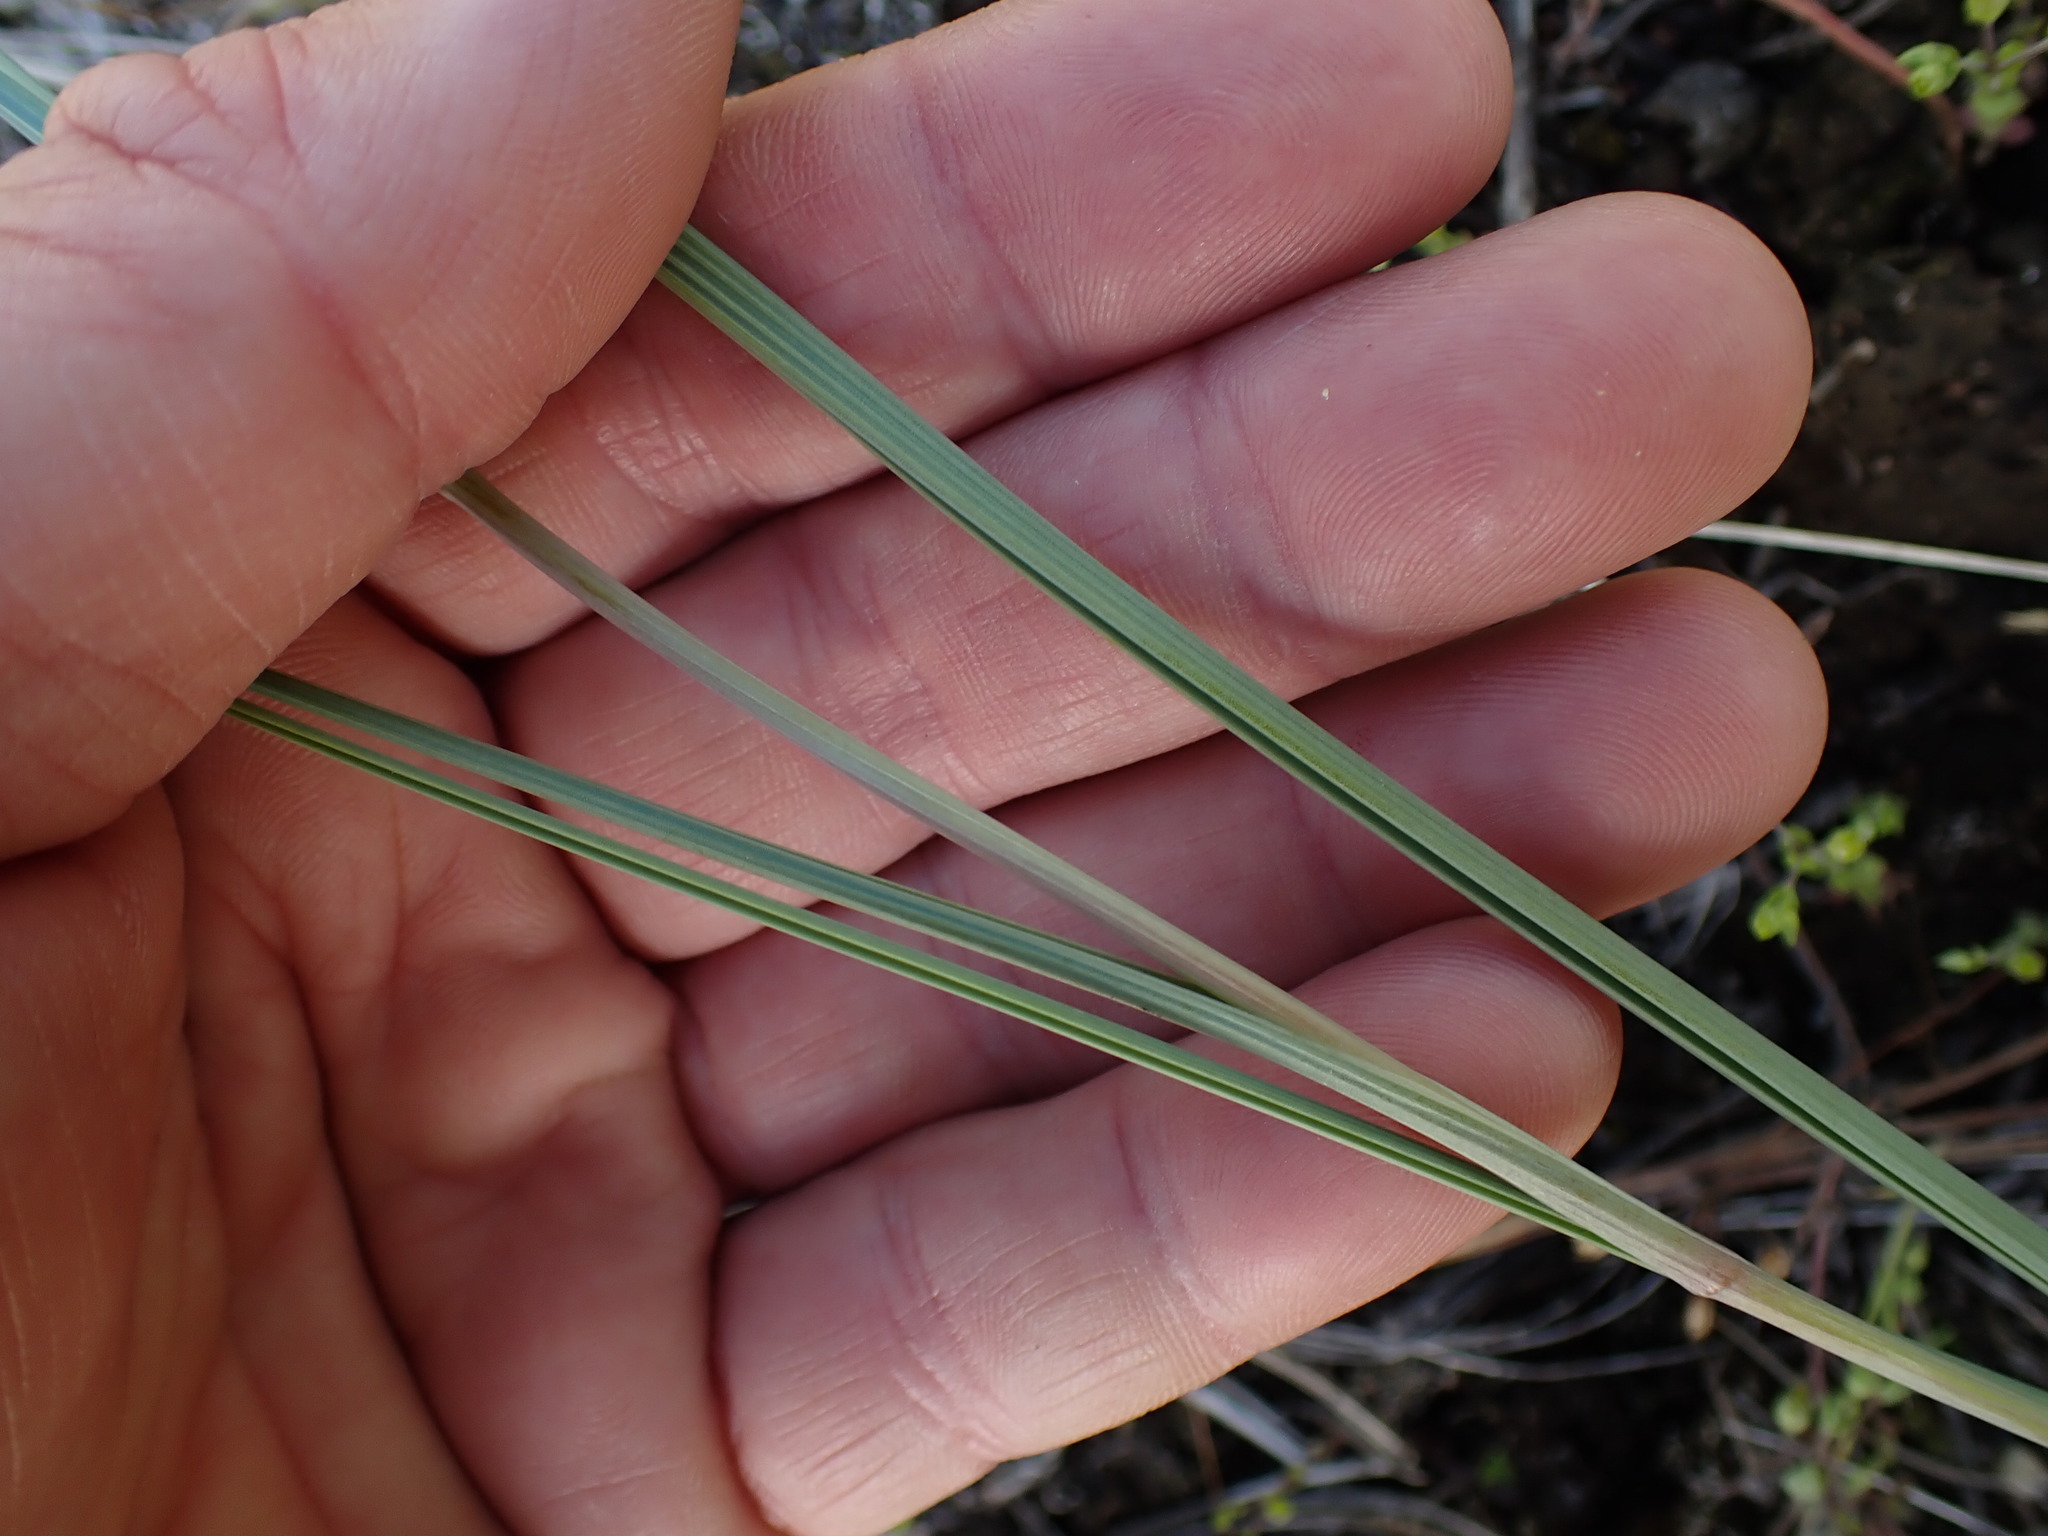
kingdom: Plantae
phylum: Tracheophyta
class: Liliopsida
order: Liliales
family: Liliaceae
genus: Calochortus
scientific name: Calochortus macrocarpus
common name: Green-band mariposa lily
